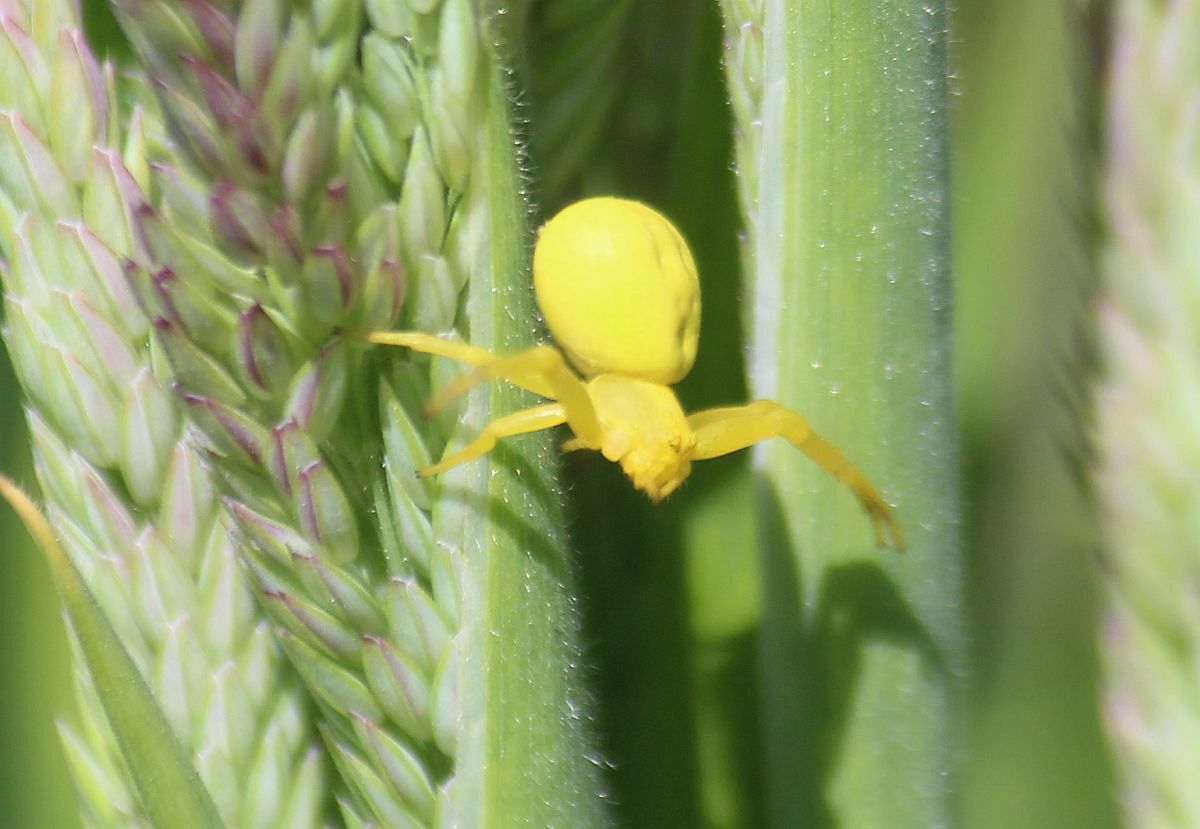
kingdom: Animalia
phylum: Arthropoda
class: Arachnida
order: Araneae
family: Thomisidae
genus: Misumena
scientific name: Misumena vatia
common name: Goldenrod crab spider
